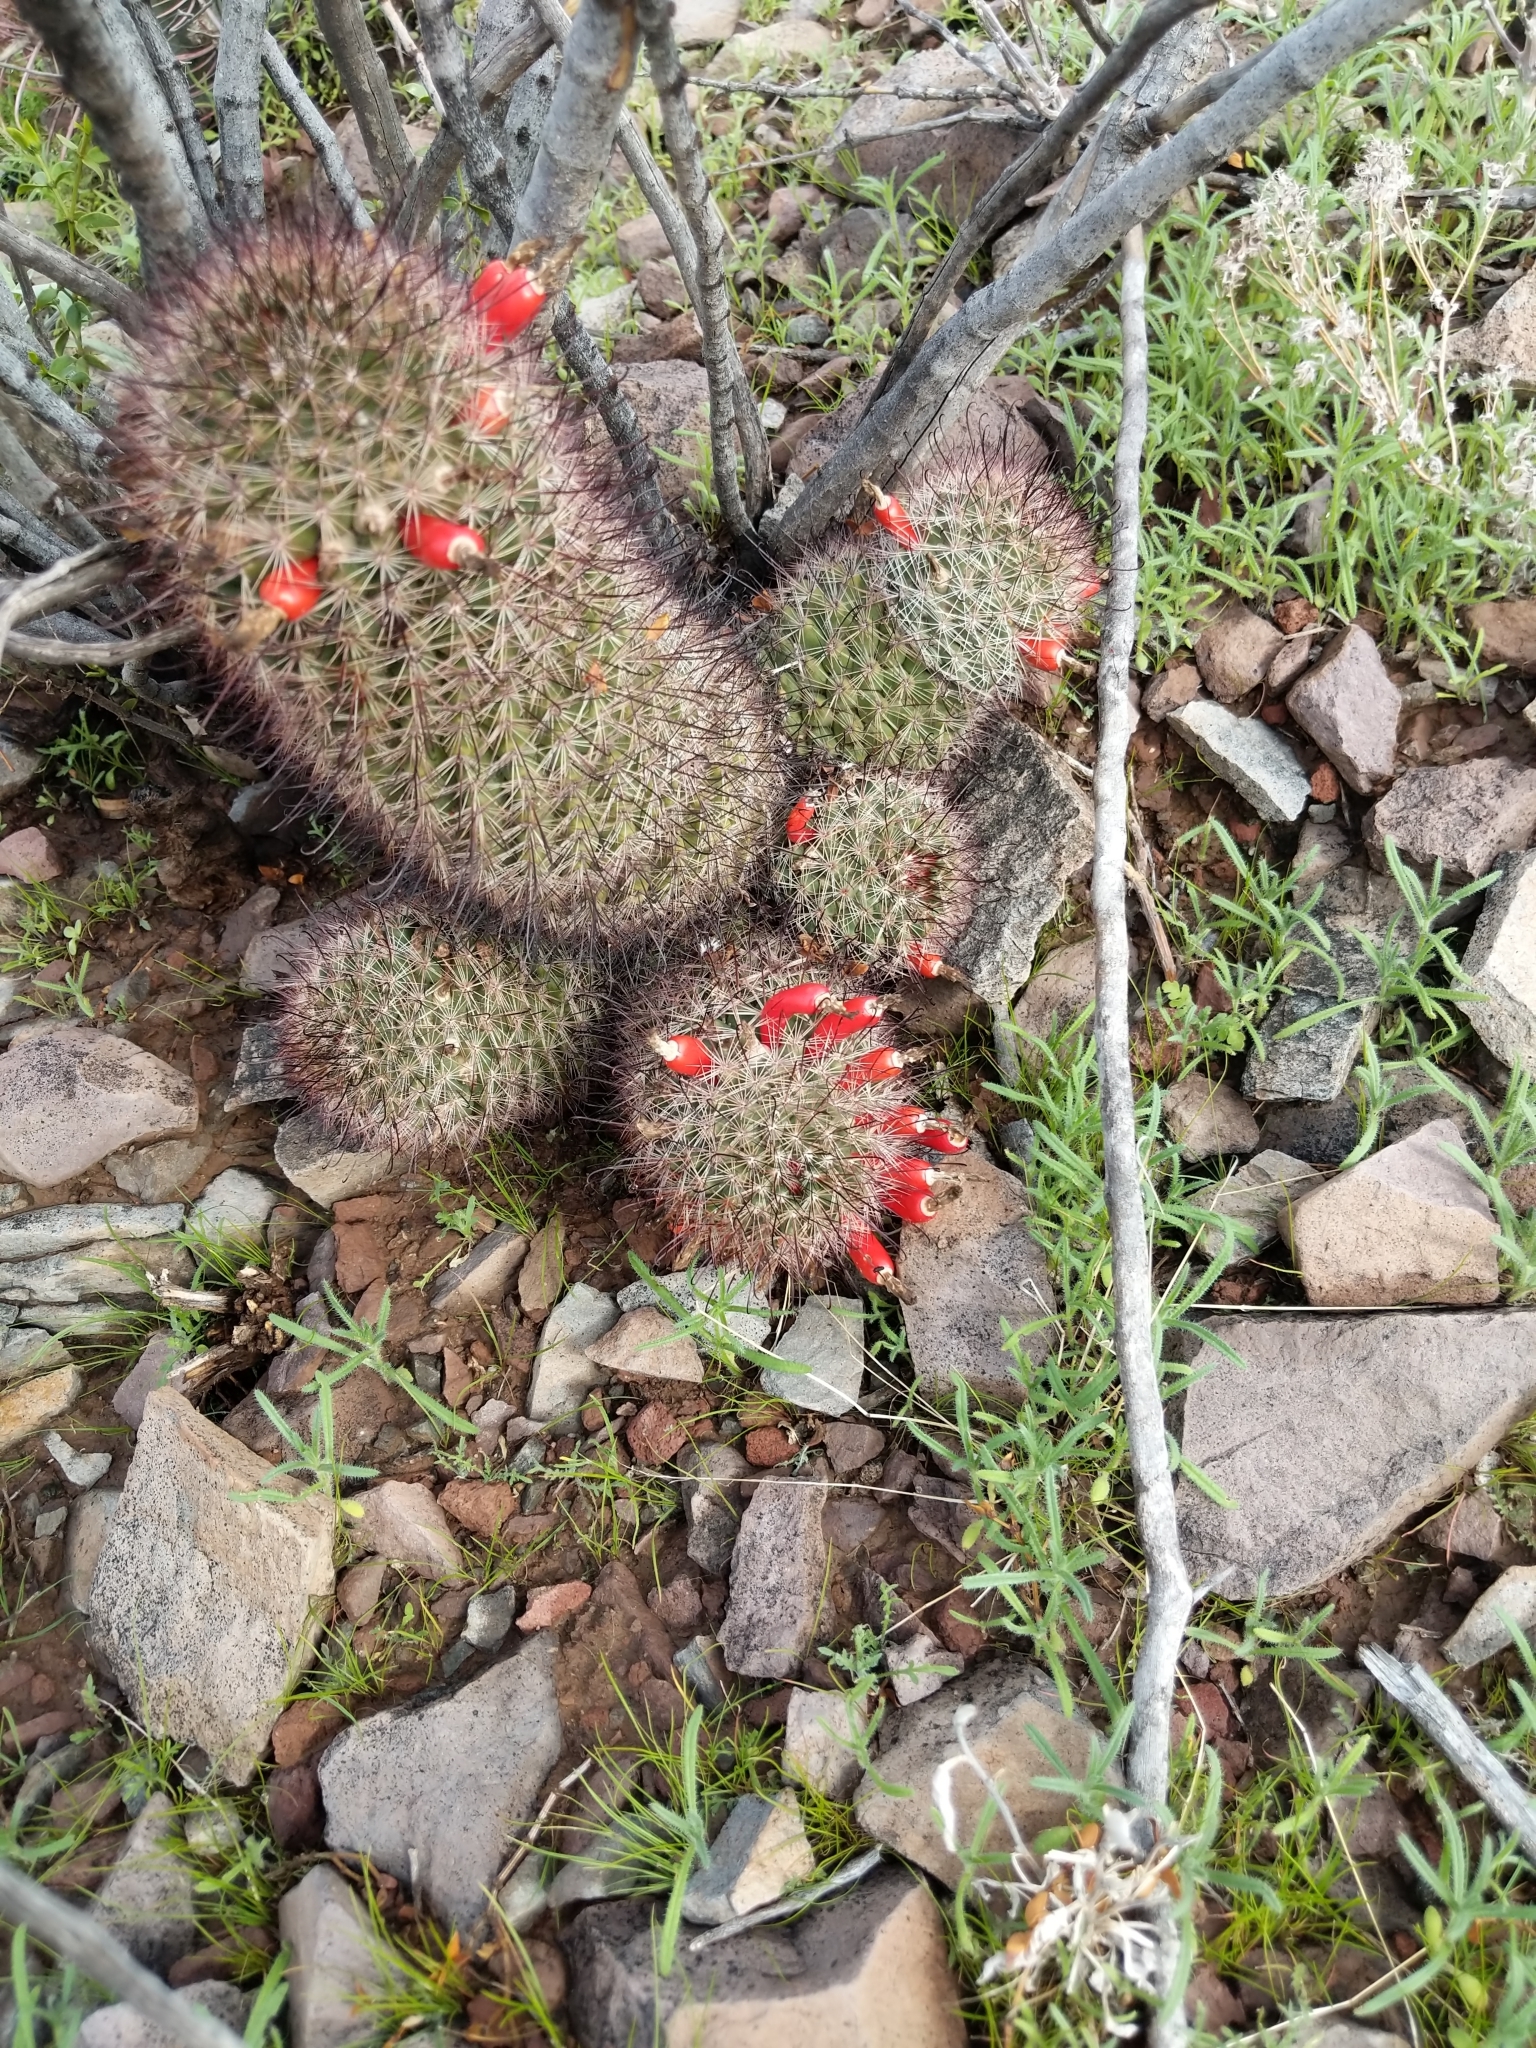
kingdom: Plantae
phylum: Tracheophyta
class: Magnoliopsida
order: Caryophyllales
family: Cactaceae
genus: Cochemiea
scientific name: Cochemiea grahamii
